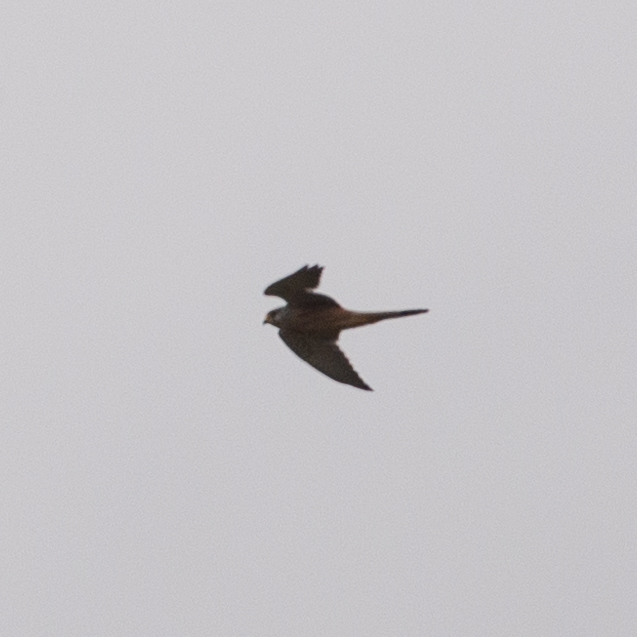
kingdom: Animalia
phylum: Chordata
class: Aves
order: Falconiformes
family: Falconidae
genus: Falco
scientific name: Falco tinnunculus
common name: Common kestrel
